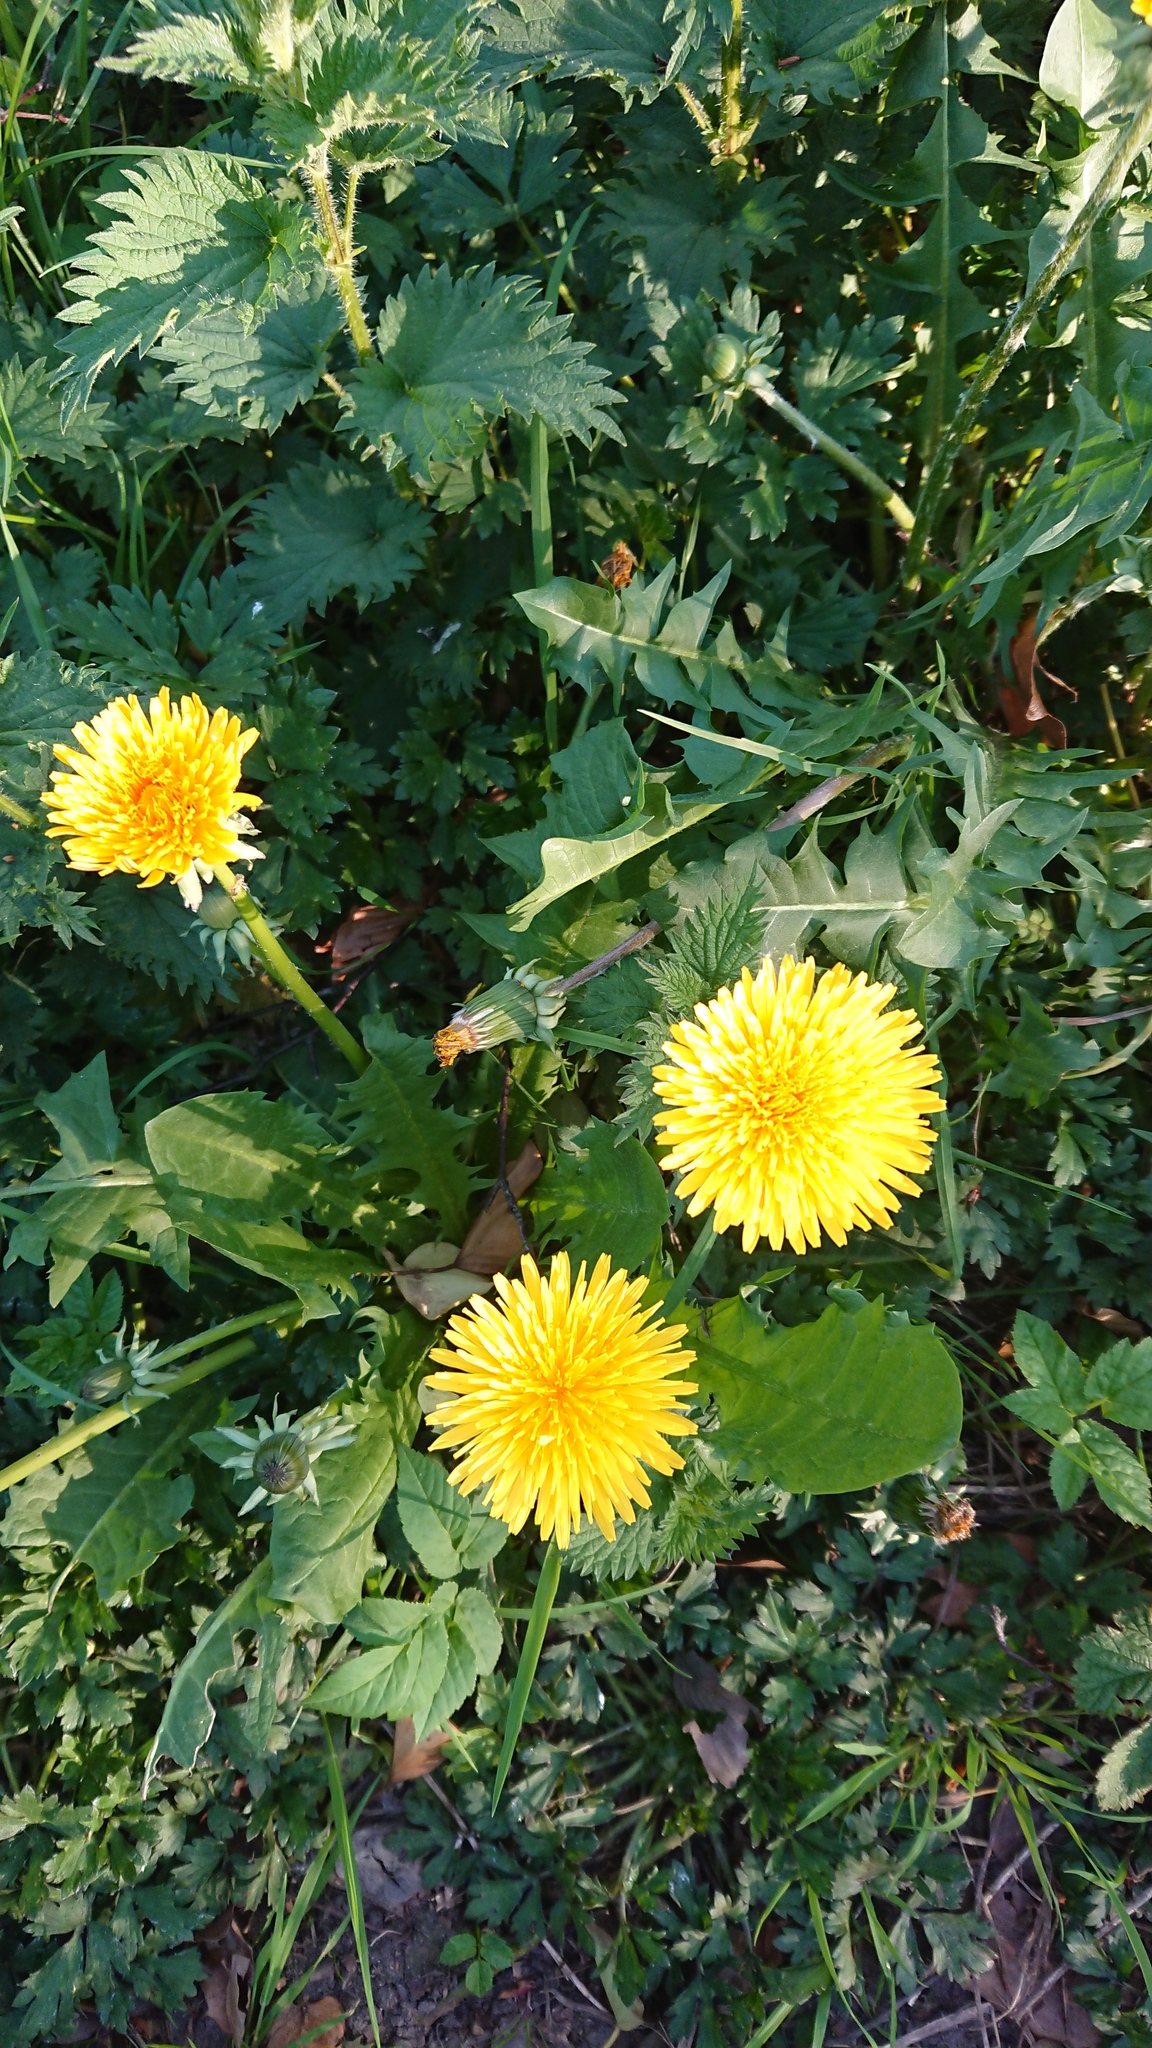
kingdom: Plantae
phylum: Tracheophyta
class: Magnoliopsida
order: Asterales
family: Asteraceae
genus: Taraxacum
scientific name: Taraxacum officinale
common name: Common dandelion
